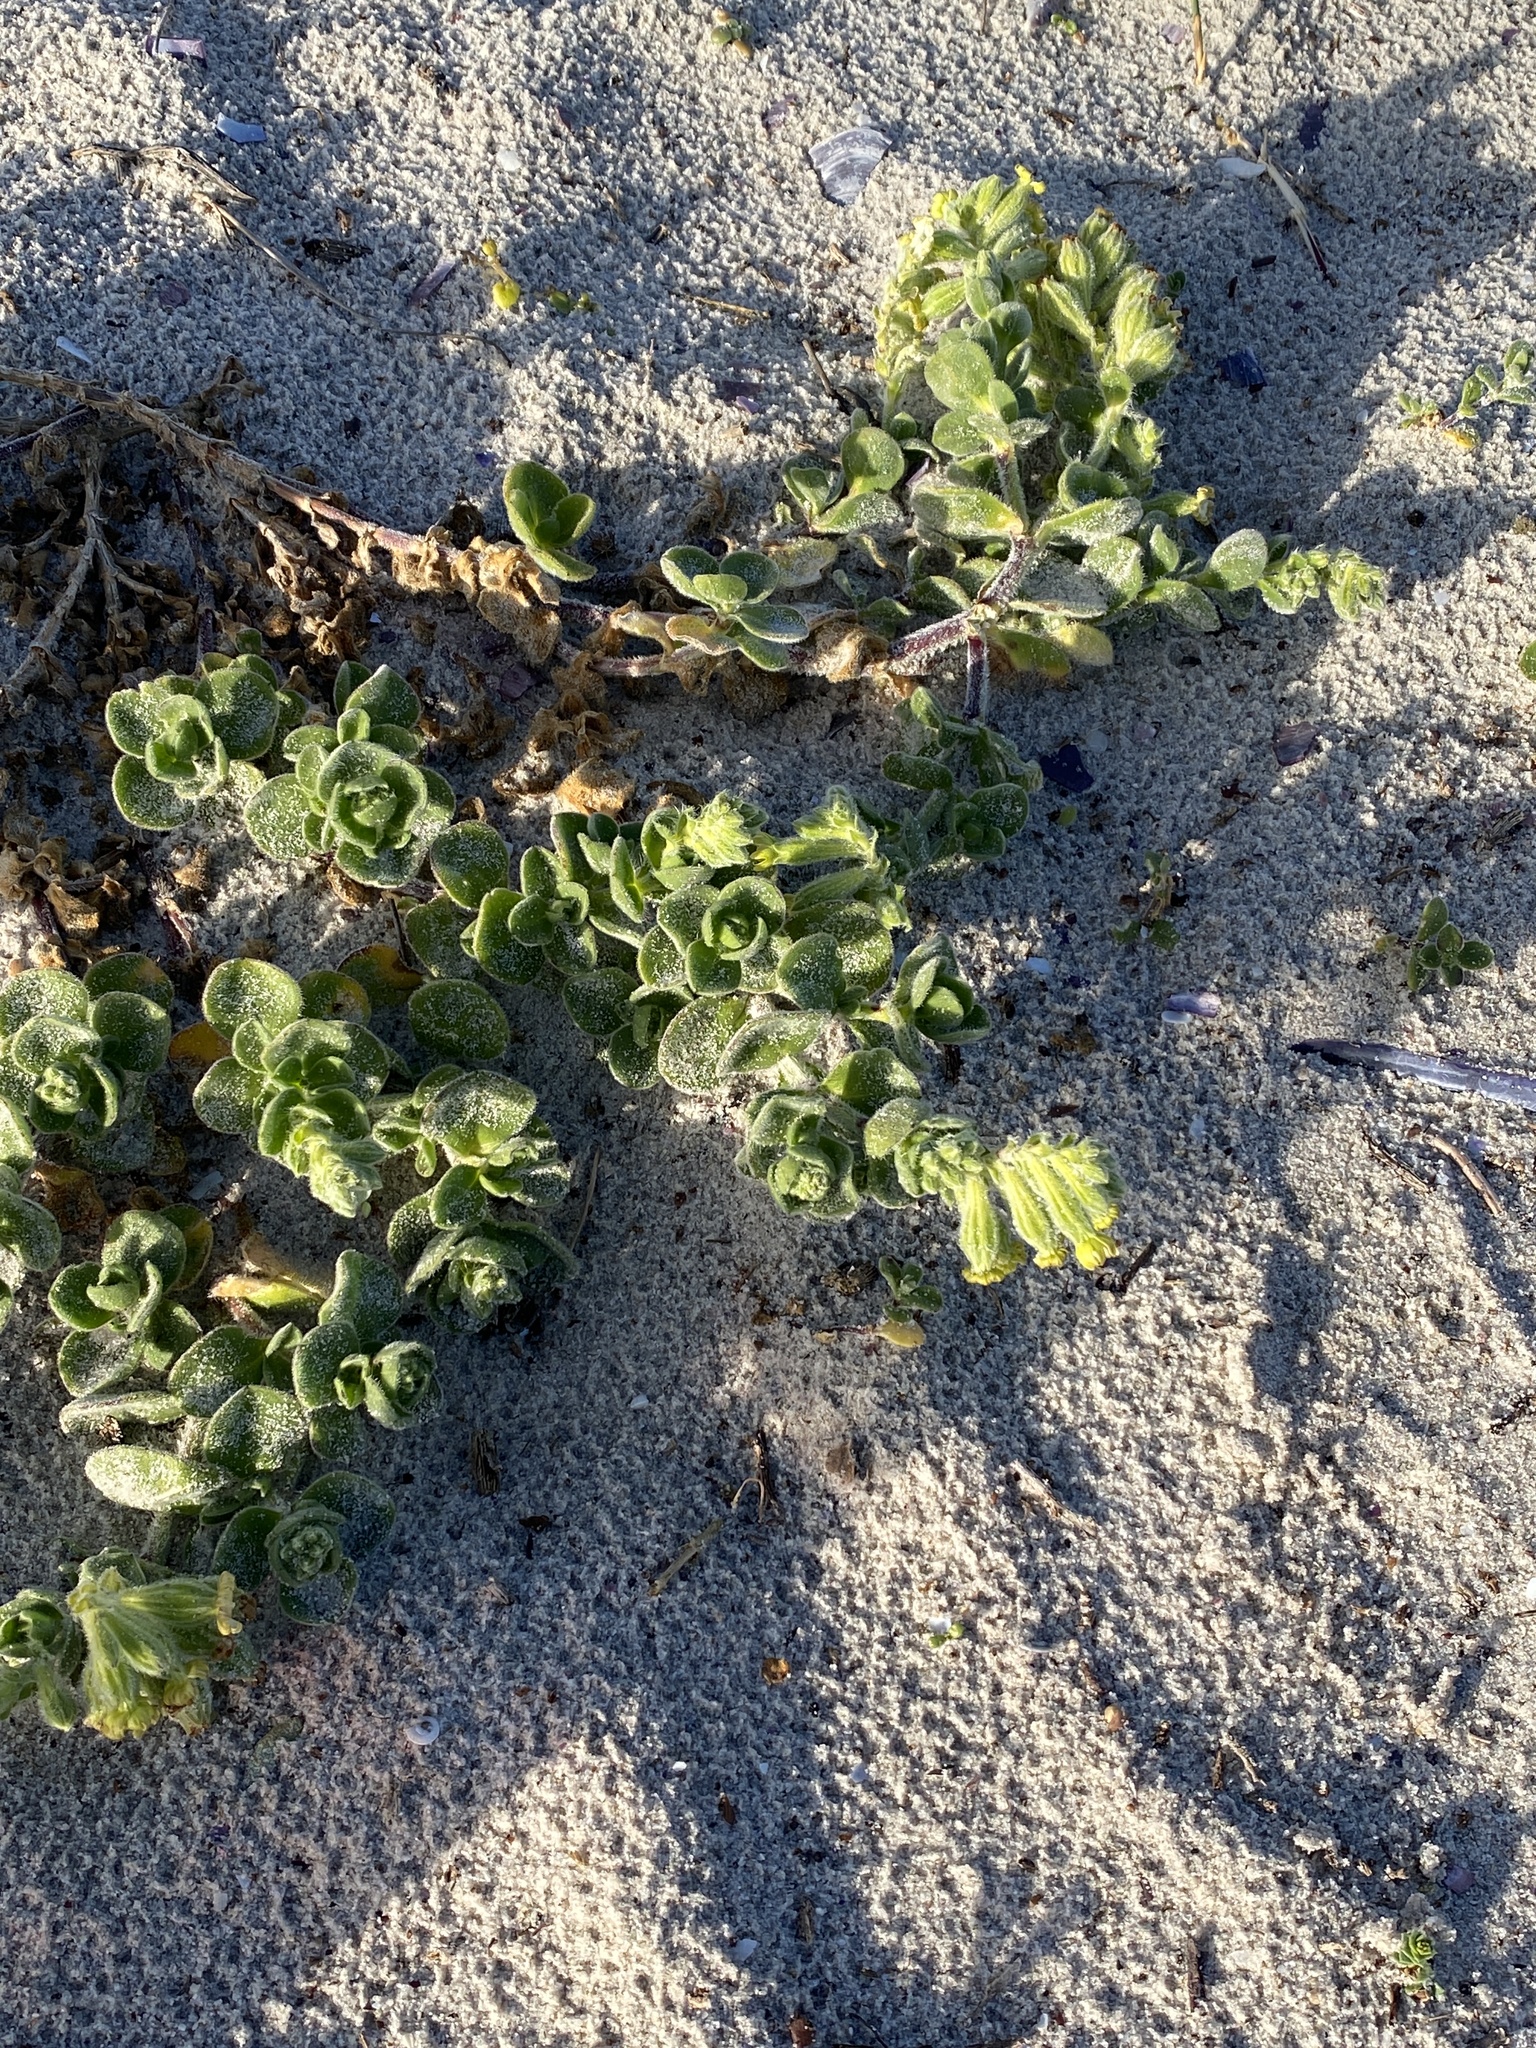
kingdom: Plantae
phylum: Tracheophyta
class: Magnoliopsida
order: Caryophyllales
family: Caryophyllaceae
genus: Silene
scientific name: Silene crassifolia
